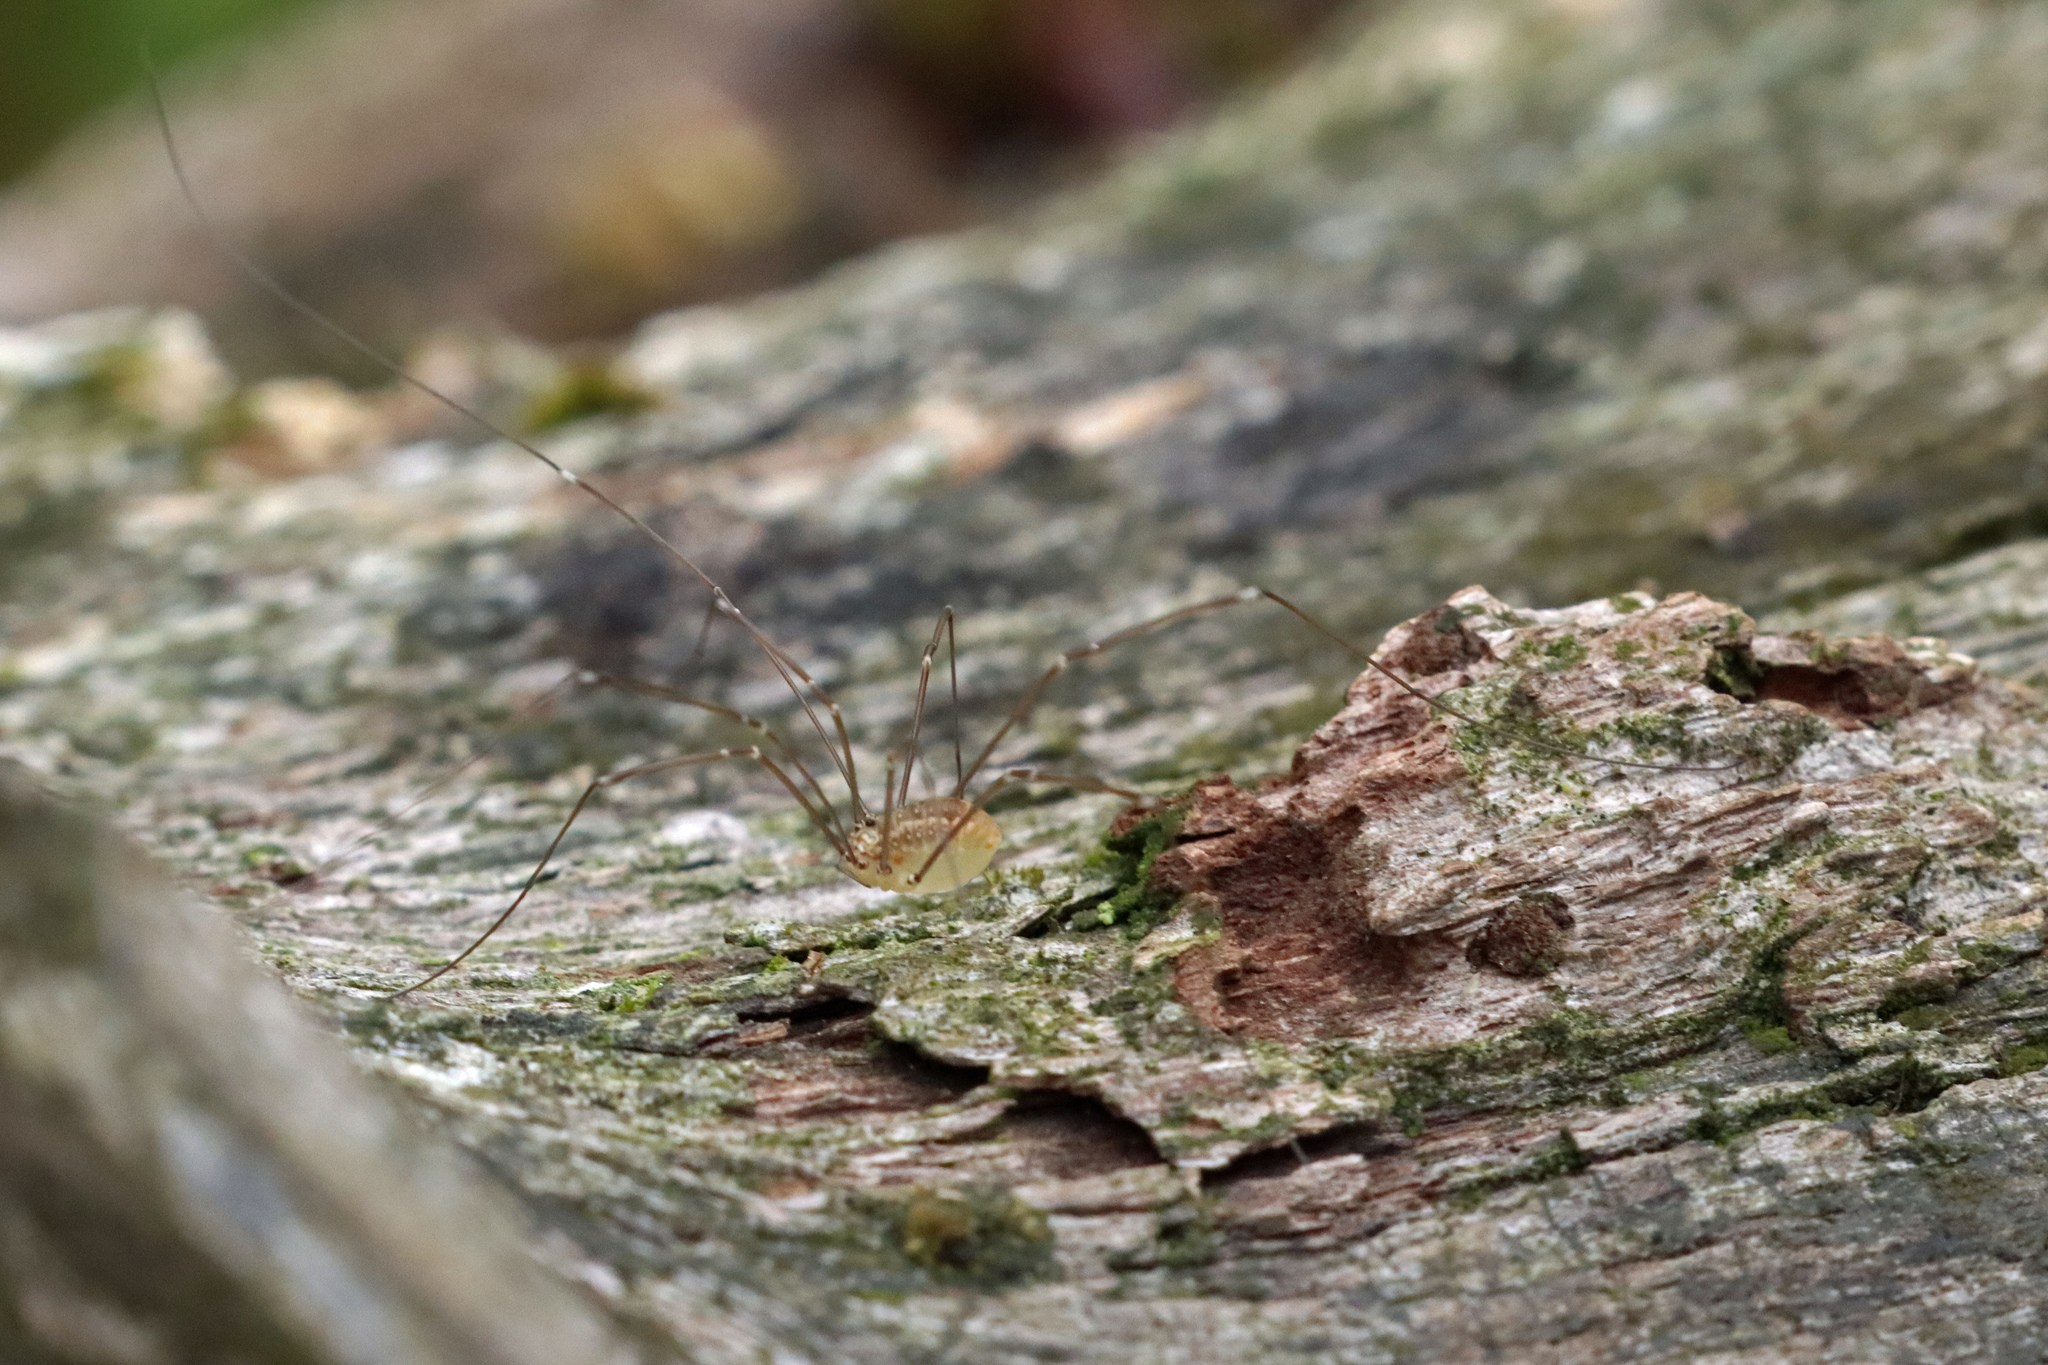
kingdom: Animalia
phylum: Arthropoda
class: Arachnida
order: Opiliones
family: Sclerosomatidae
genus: Leiobunum
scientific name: Leiobunum rotundum
